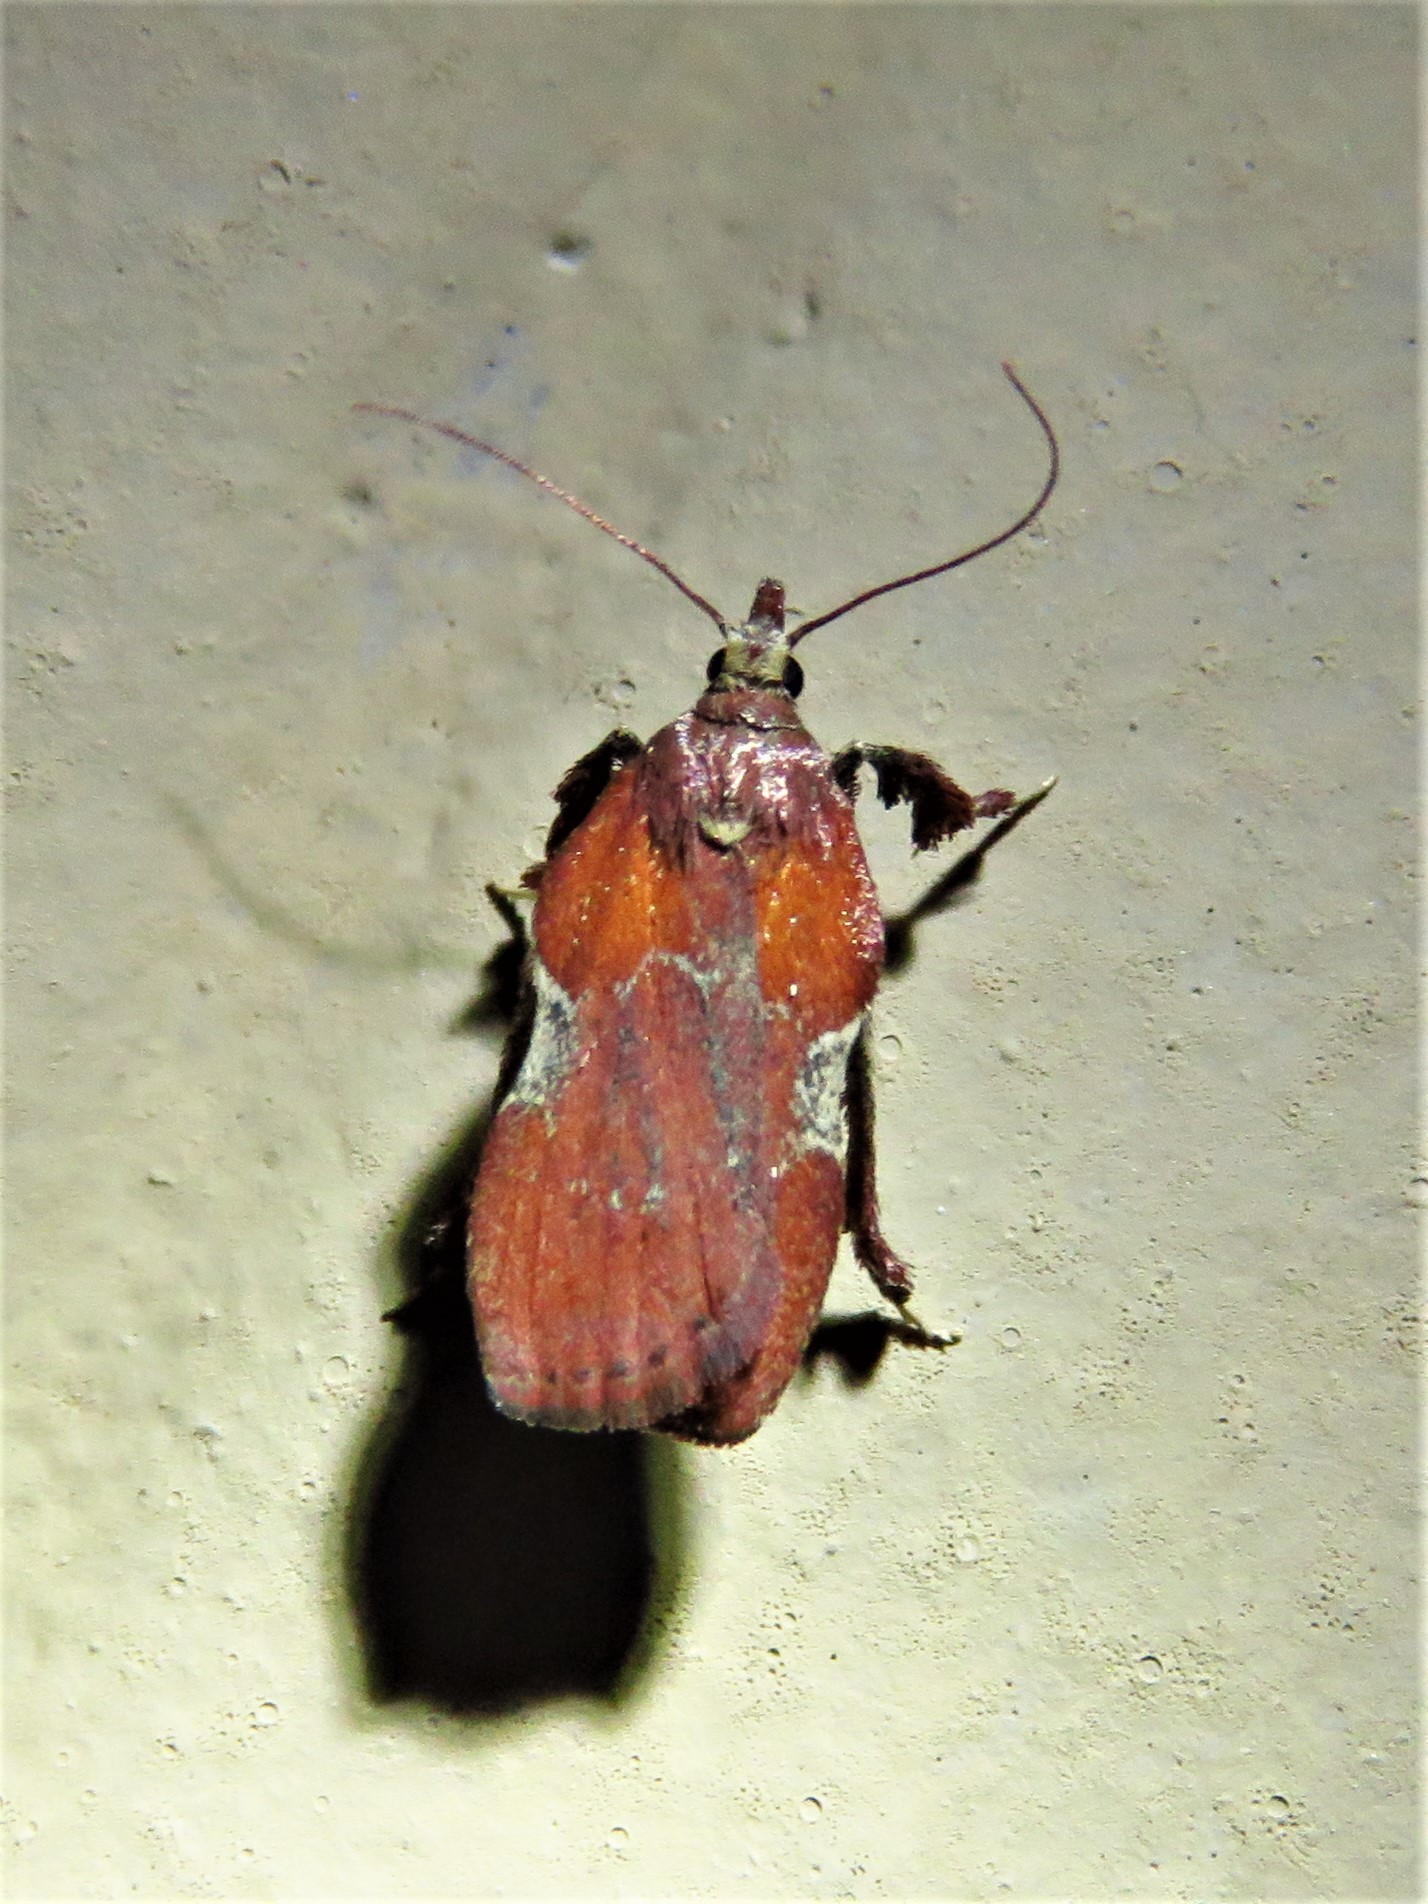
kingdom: Animalia
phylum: Arthropoda
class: Insecta
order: Lepidoptera
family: Pyralidae
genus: Galasa
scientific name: Galasa nigrinodis
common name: Boxwood leaftier moth
